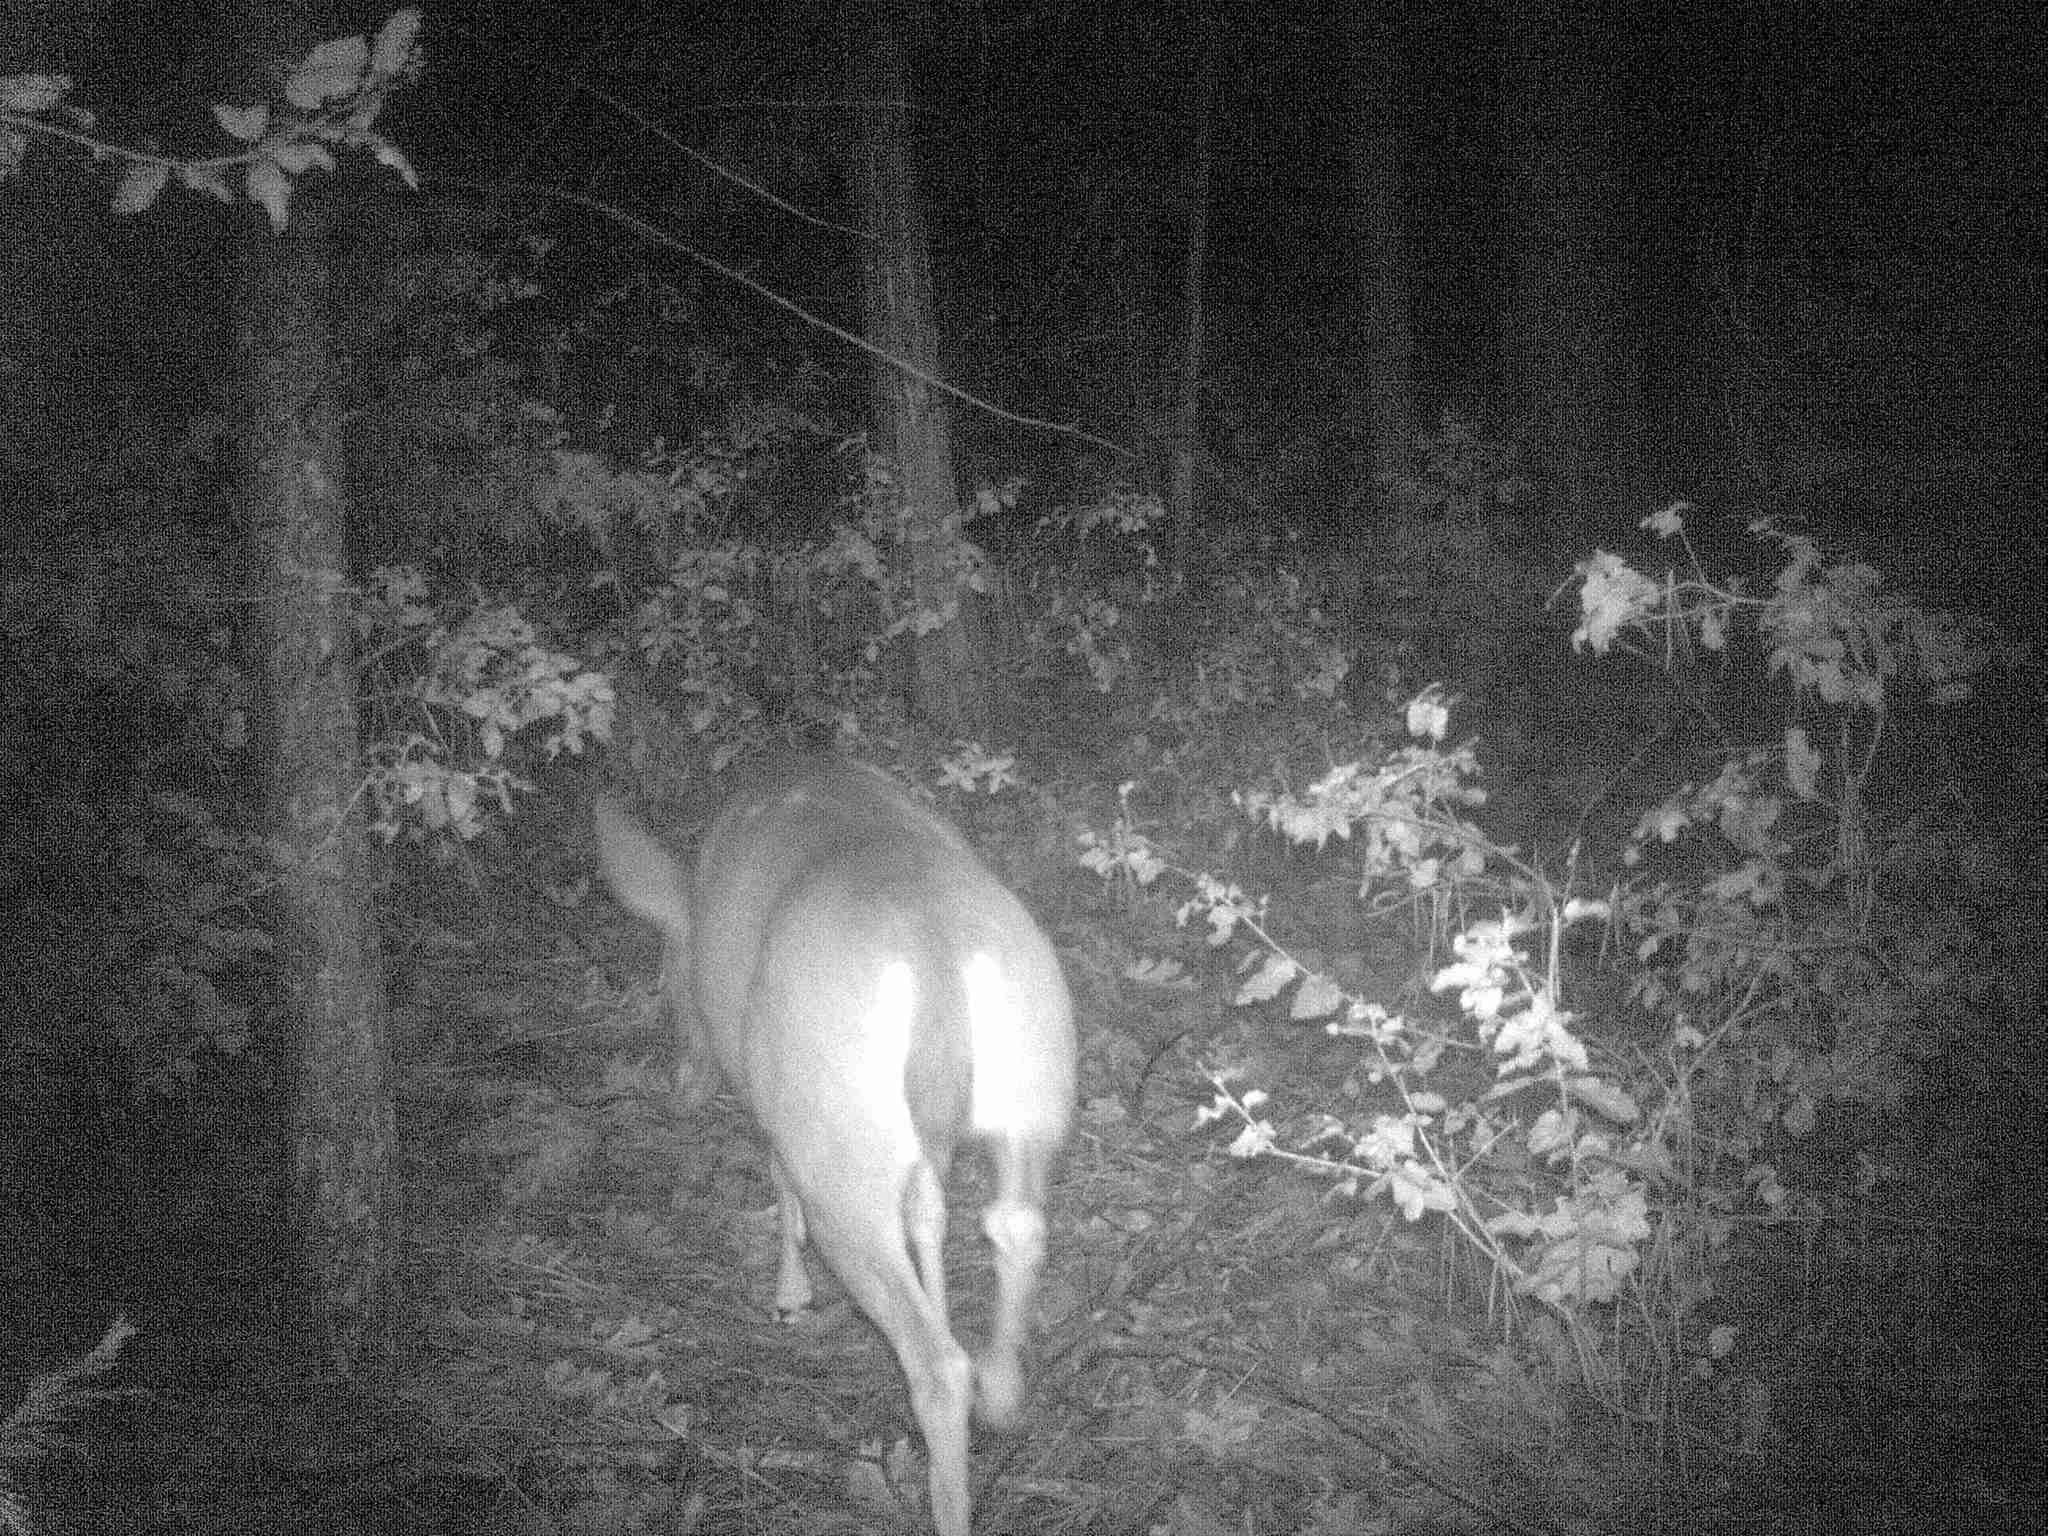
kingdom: Animalia
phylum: Chordata
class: Mammalia
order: Artiodactyla
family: Cervidae
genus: Odocoileus
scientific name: Odocoileus hemionus
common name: Mule deer
